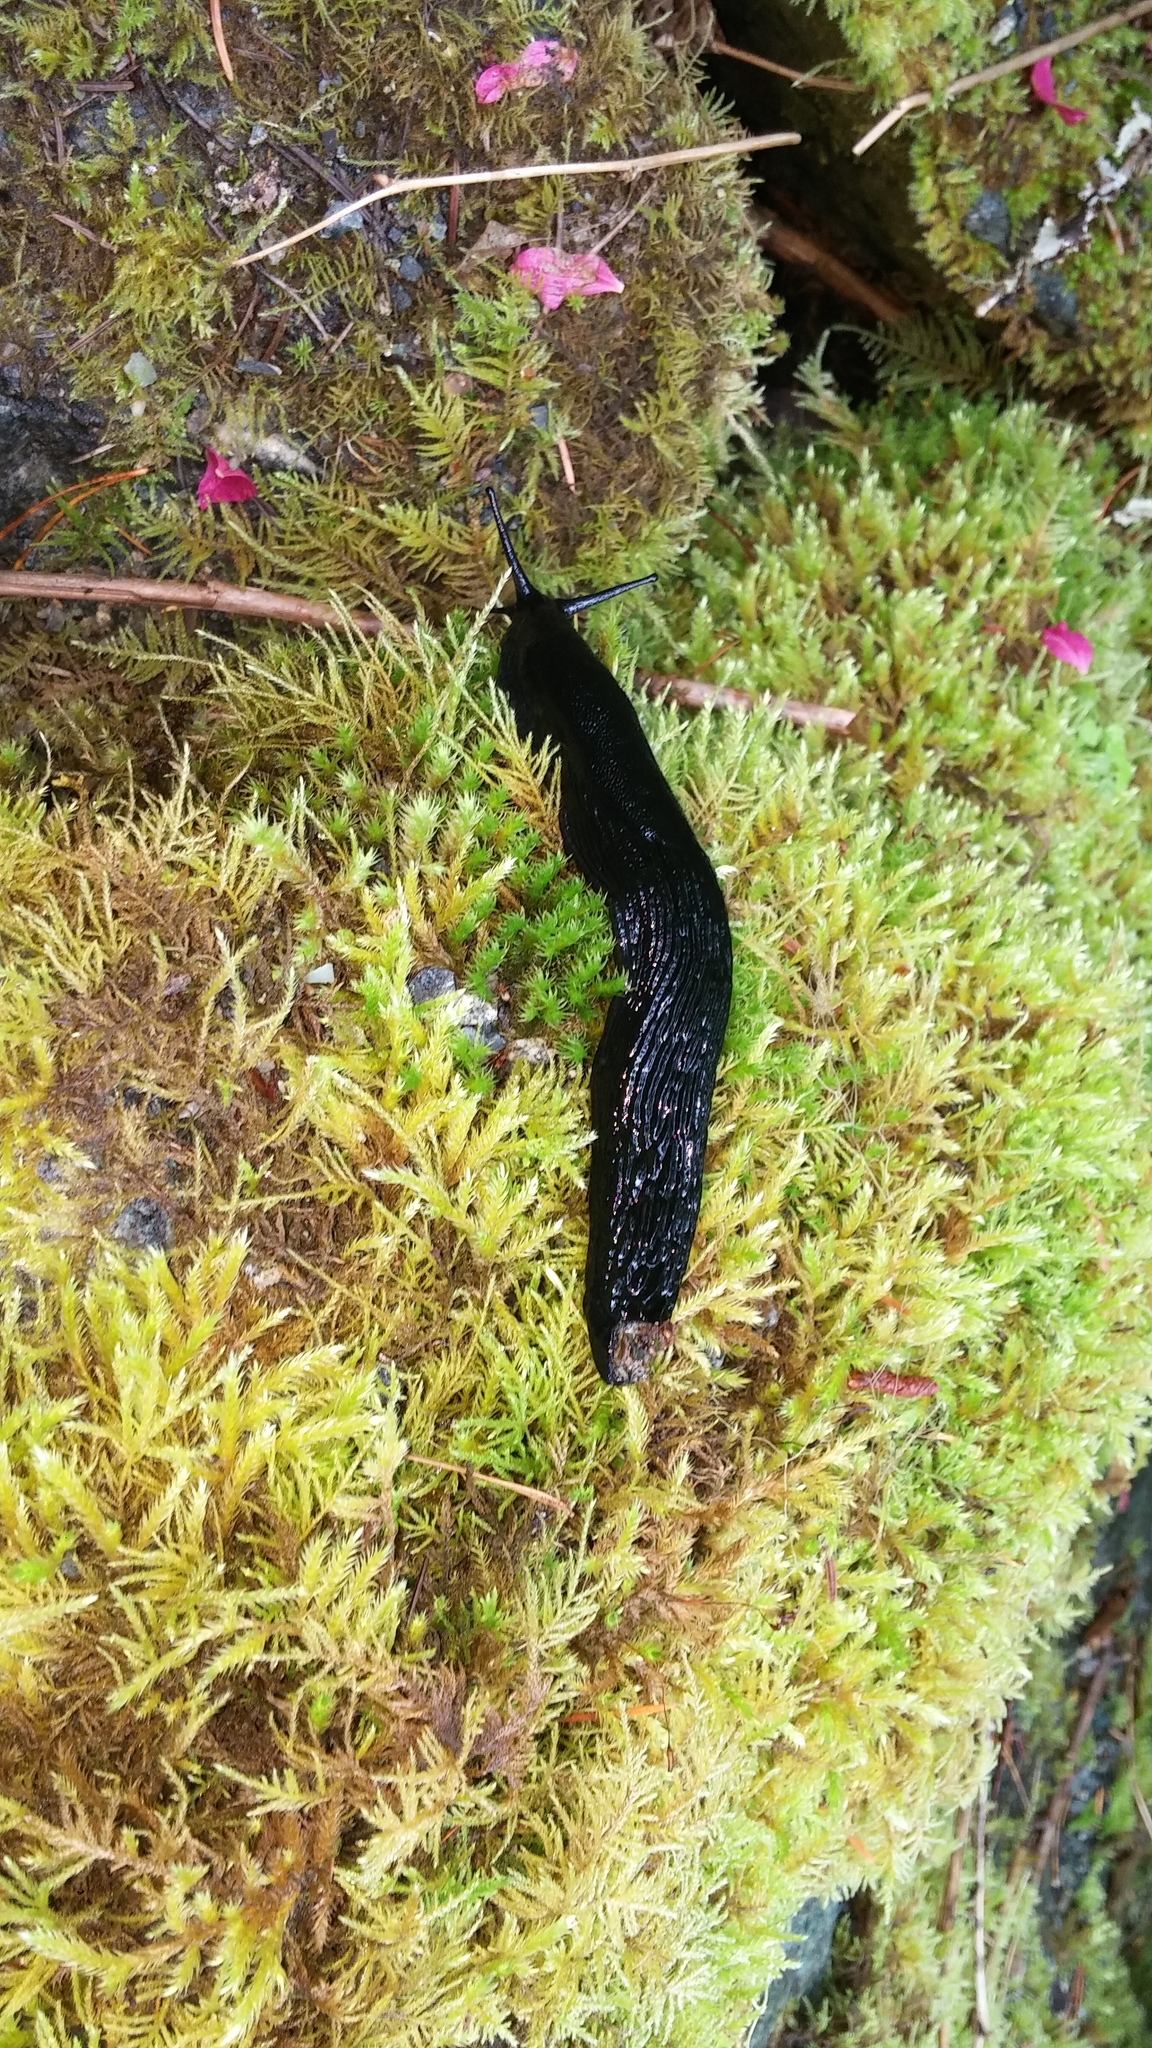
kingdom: Animalia
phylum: Mollusca
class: Gastropoda
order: Stylommatophora
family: Arionidae
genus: Arion
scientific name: Arion
